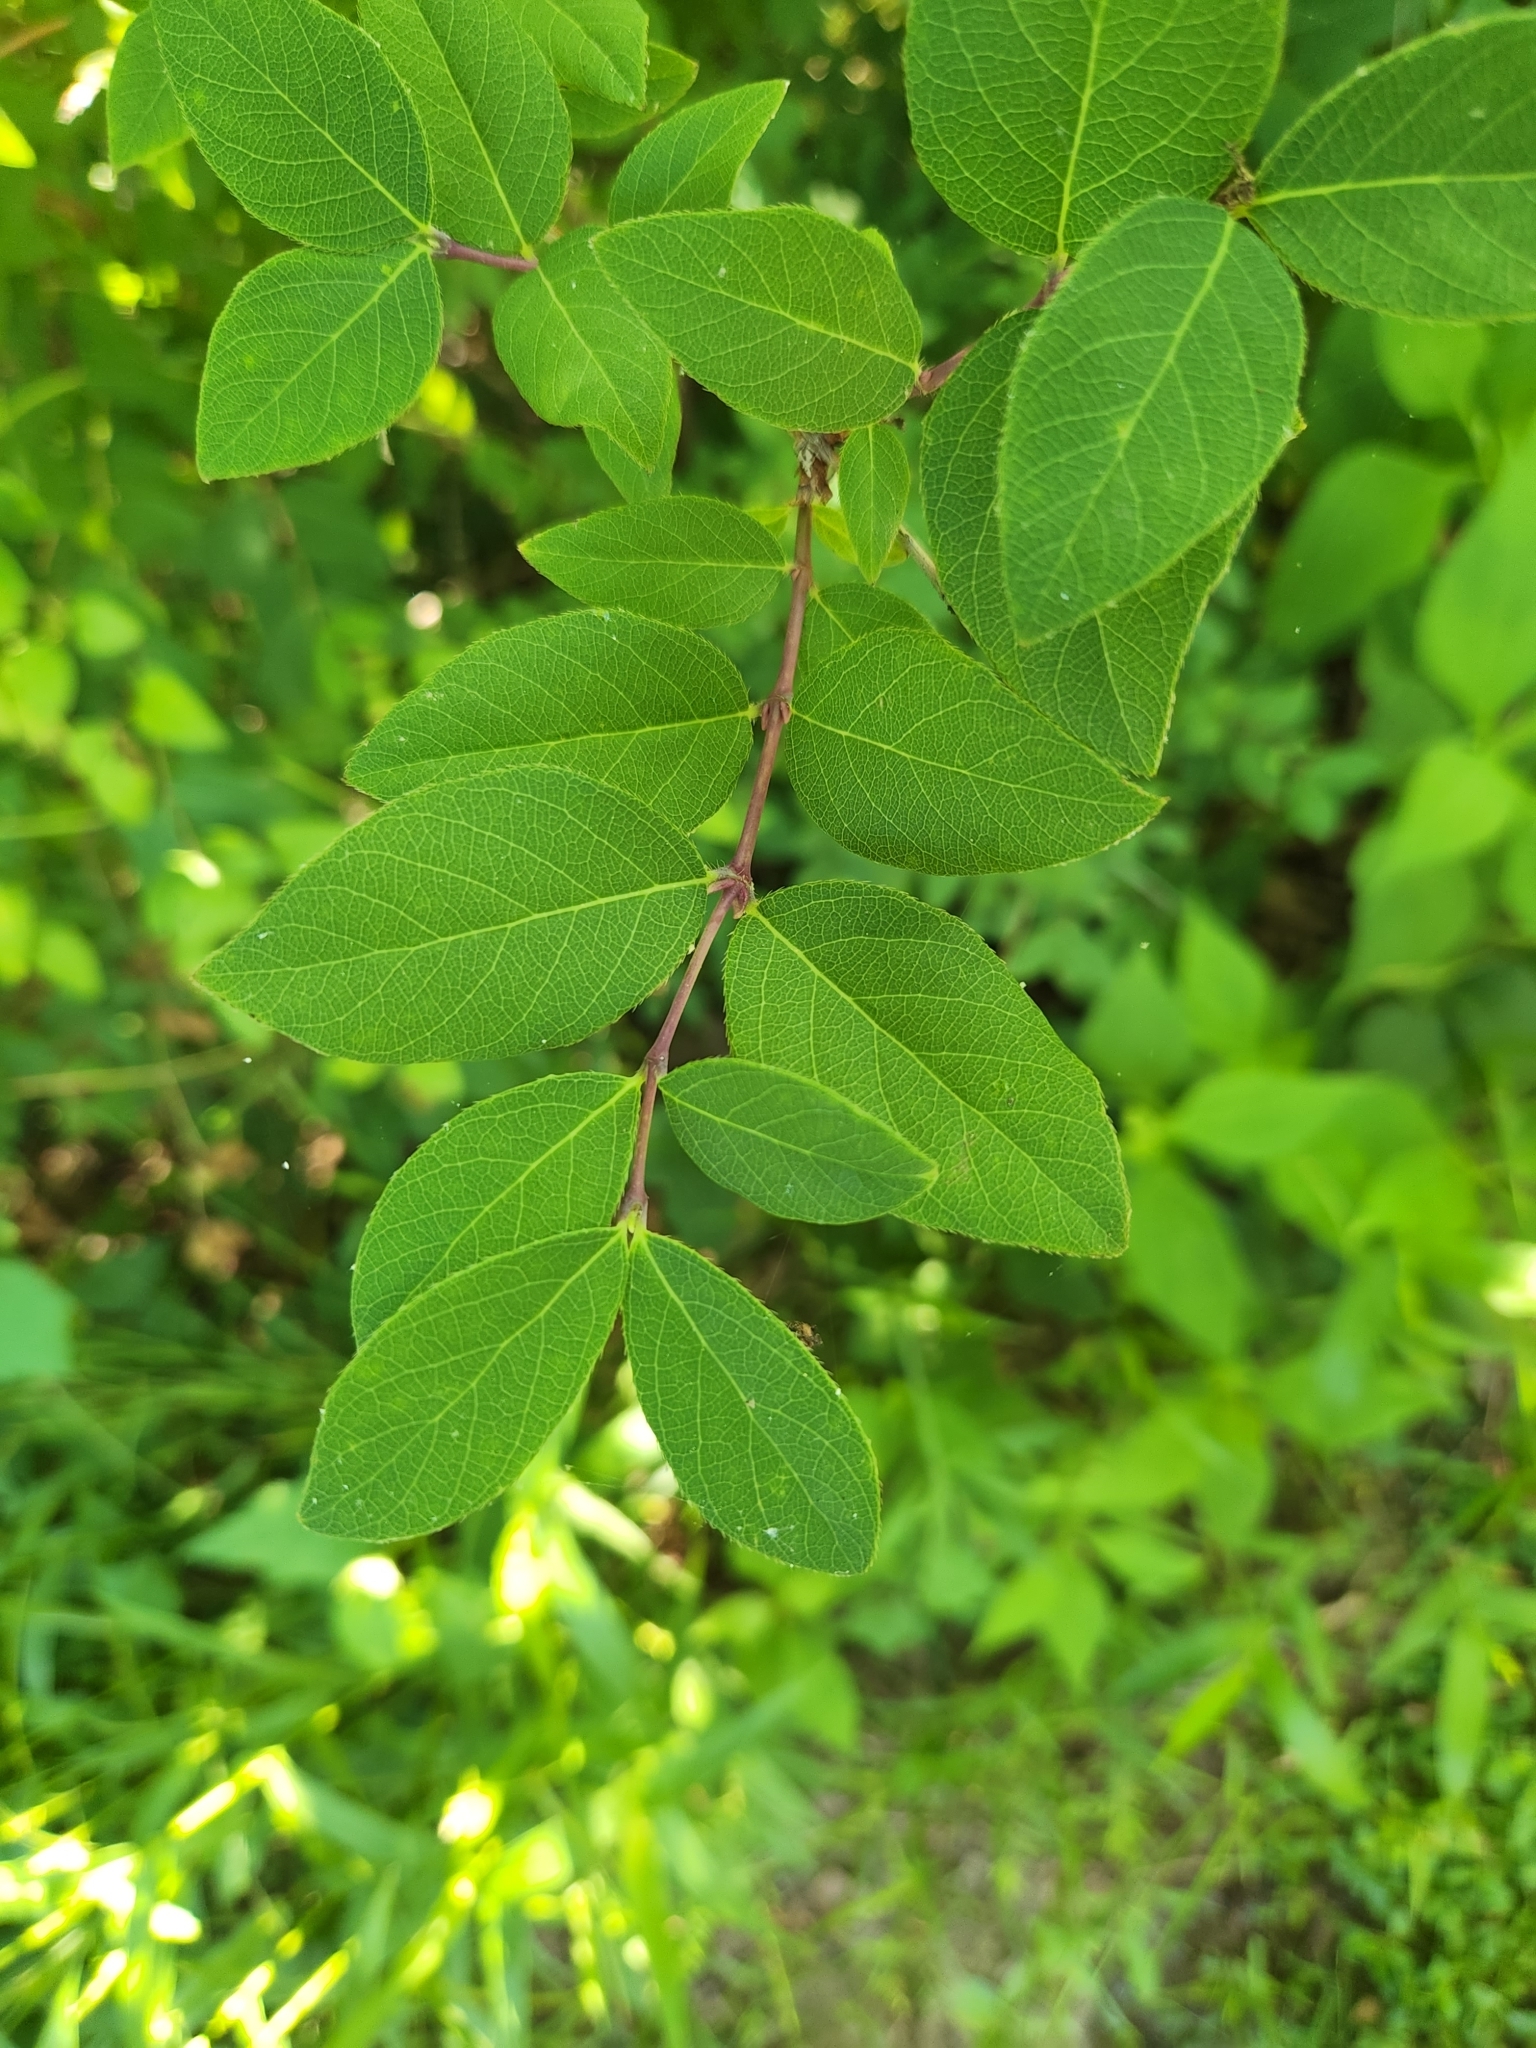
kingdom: Plantae
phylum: Tracheophyta
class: Magnoliopsida
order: Dipsacales
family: Caprifoliaceae
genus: Lonicera
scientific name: Lonicera fragrantissima
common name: Fragrant honeysuckle
